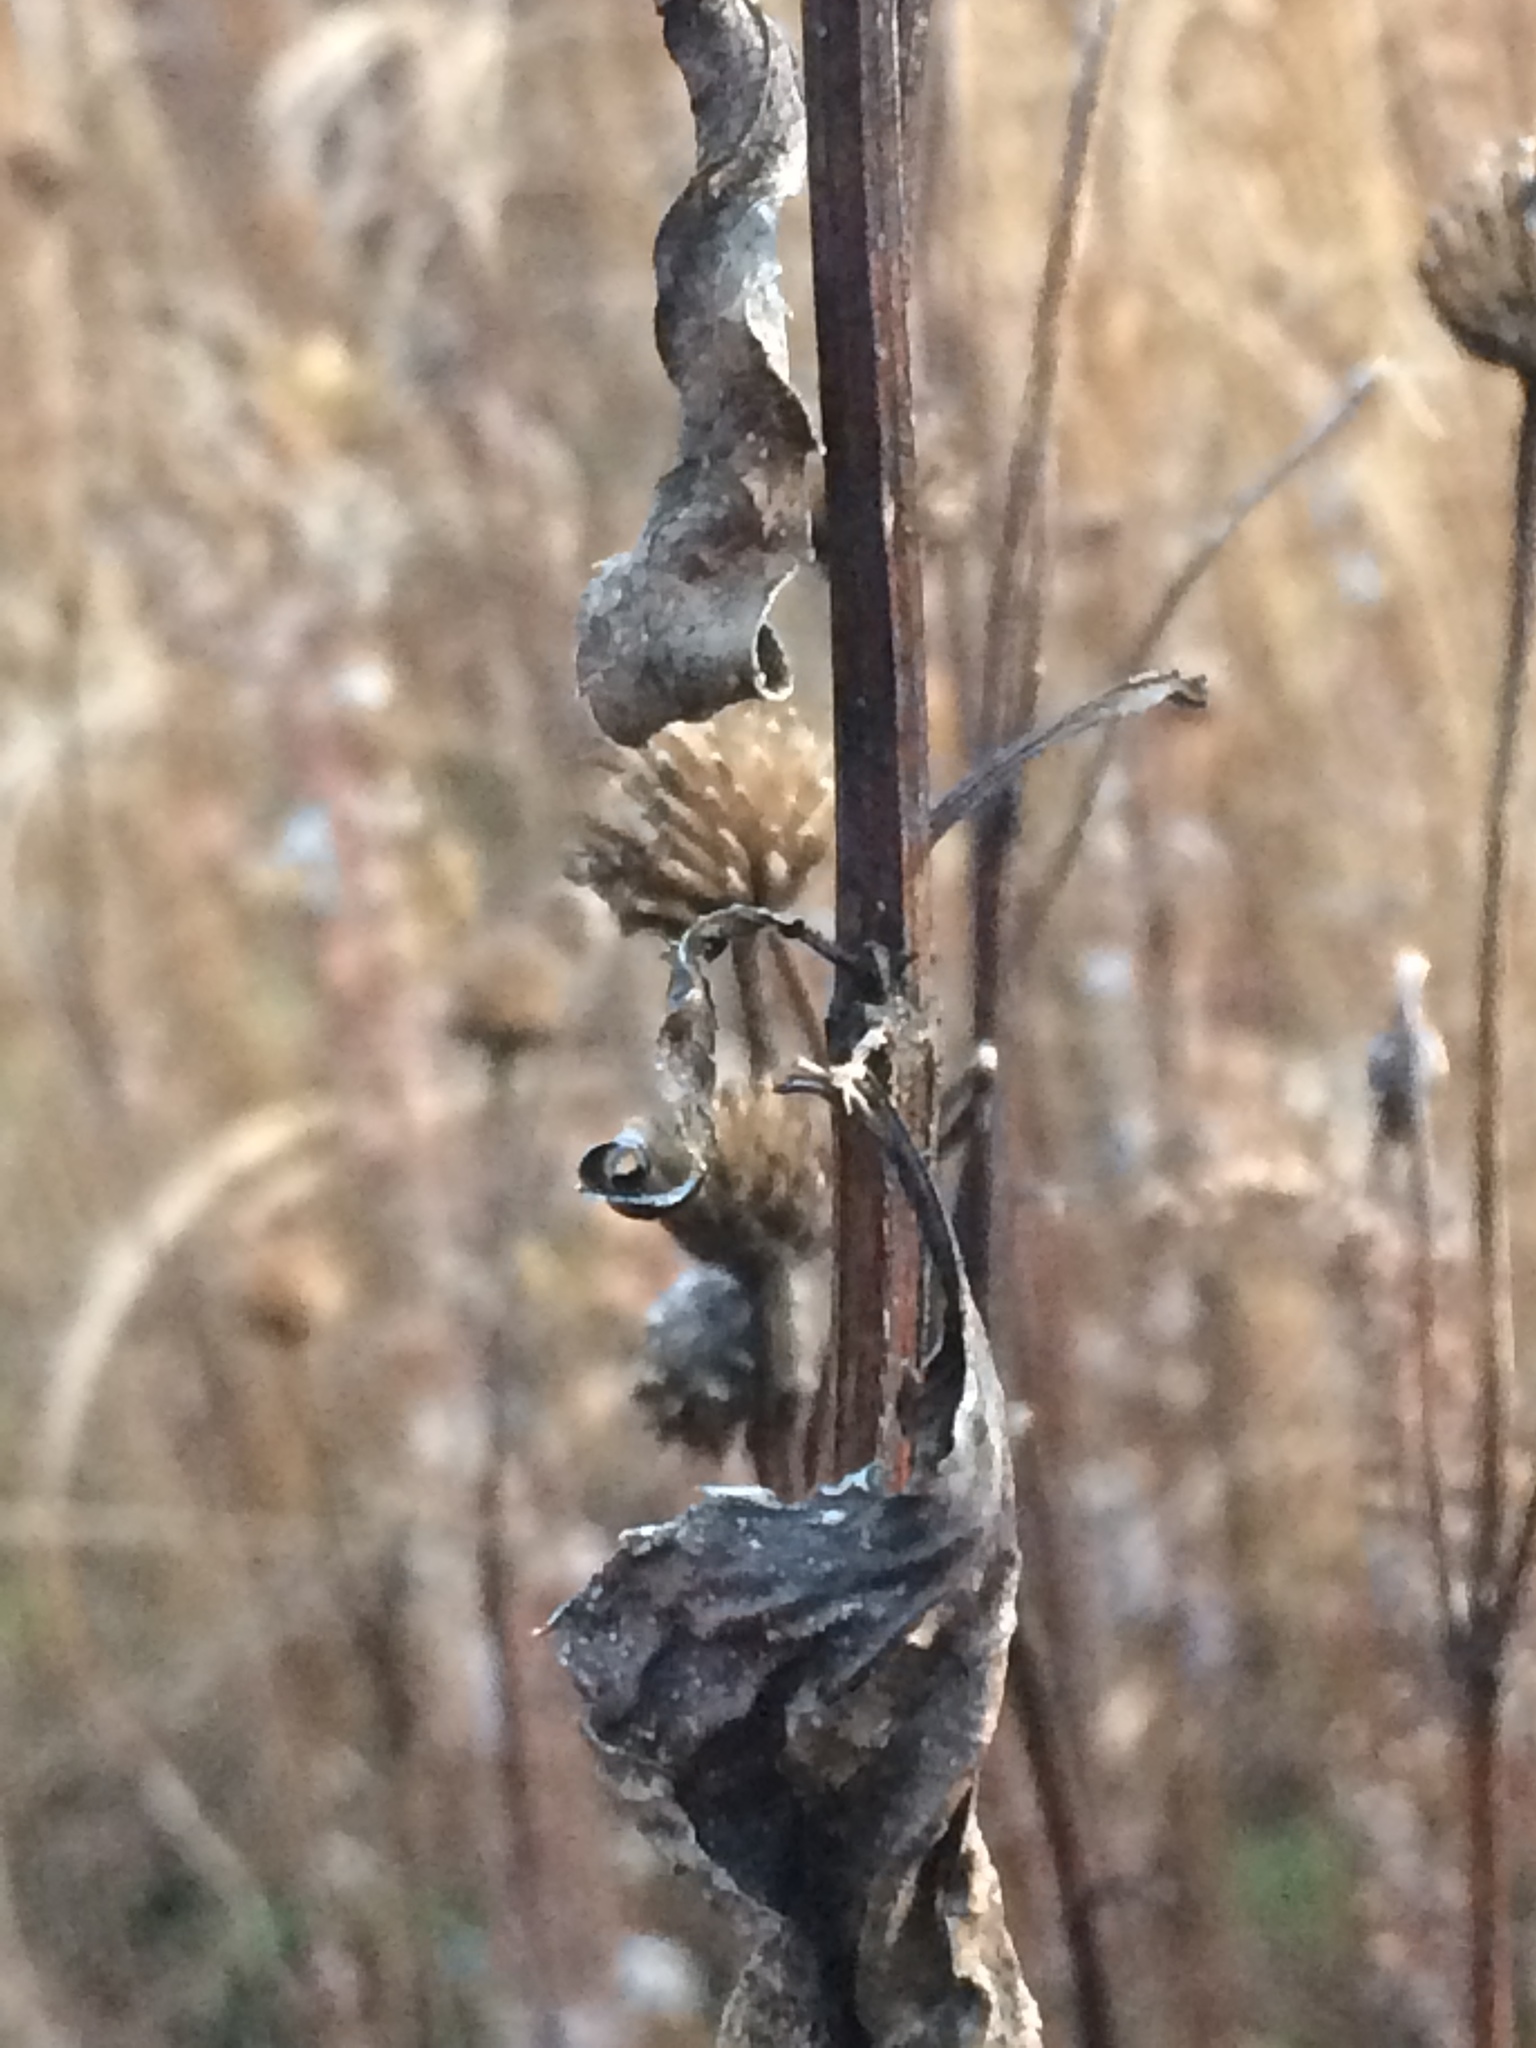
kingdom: Plantae
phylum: Tracheophyta
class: Magnoliopsida
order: Asterales
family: Asteraceae
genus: Heliopsis
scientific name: Heliopsis helianthoides
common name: False sunflower
